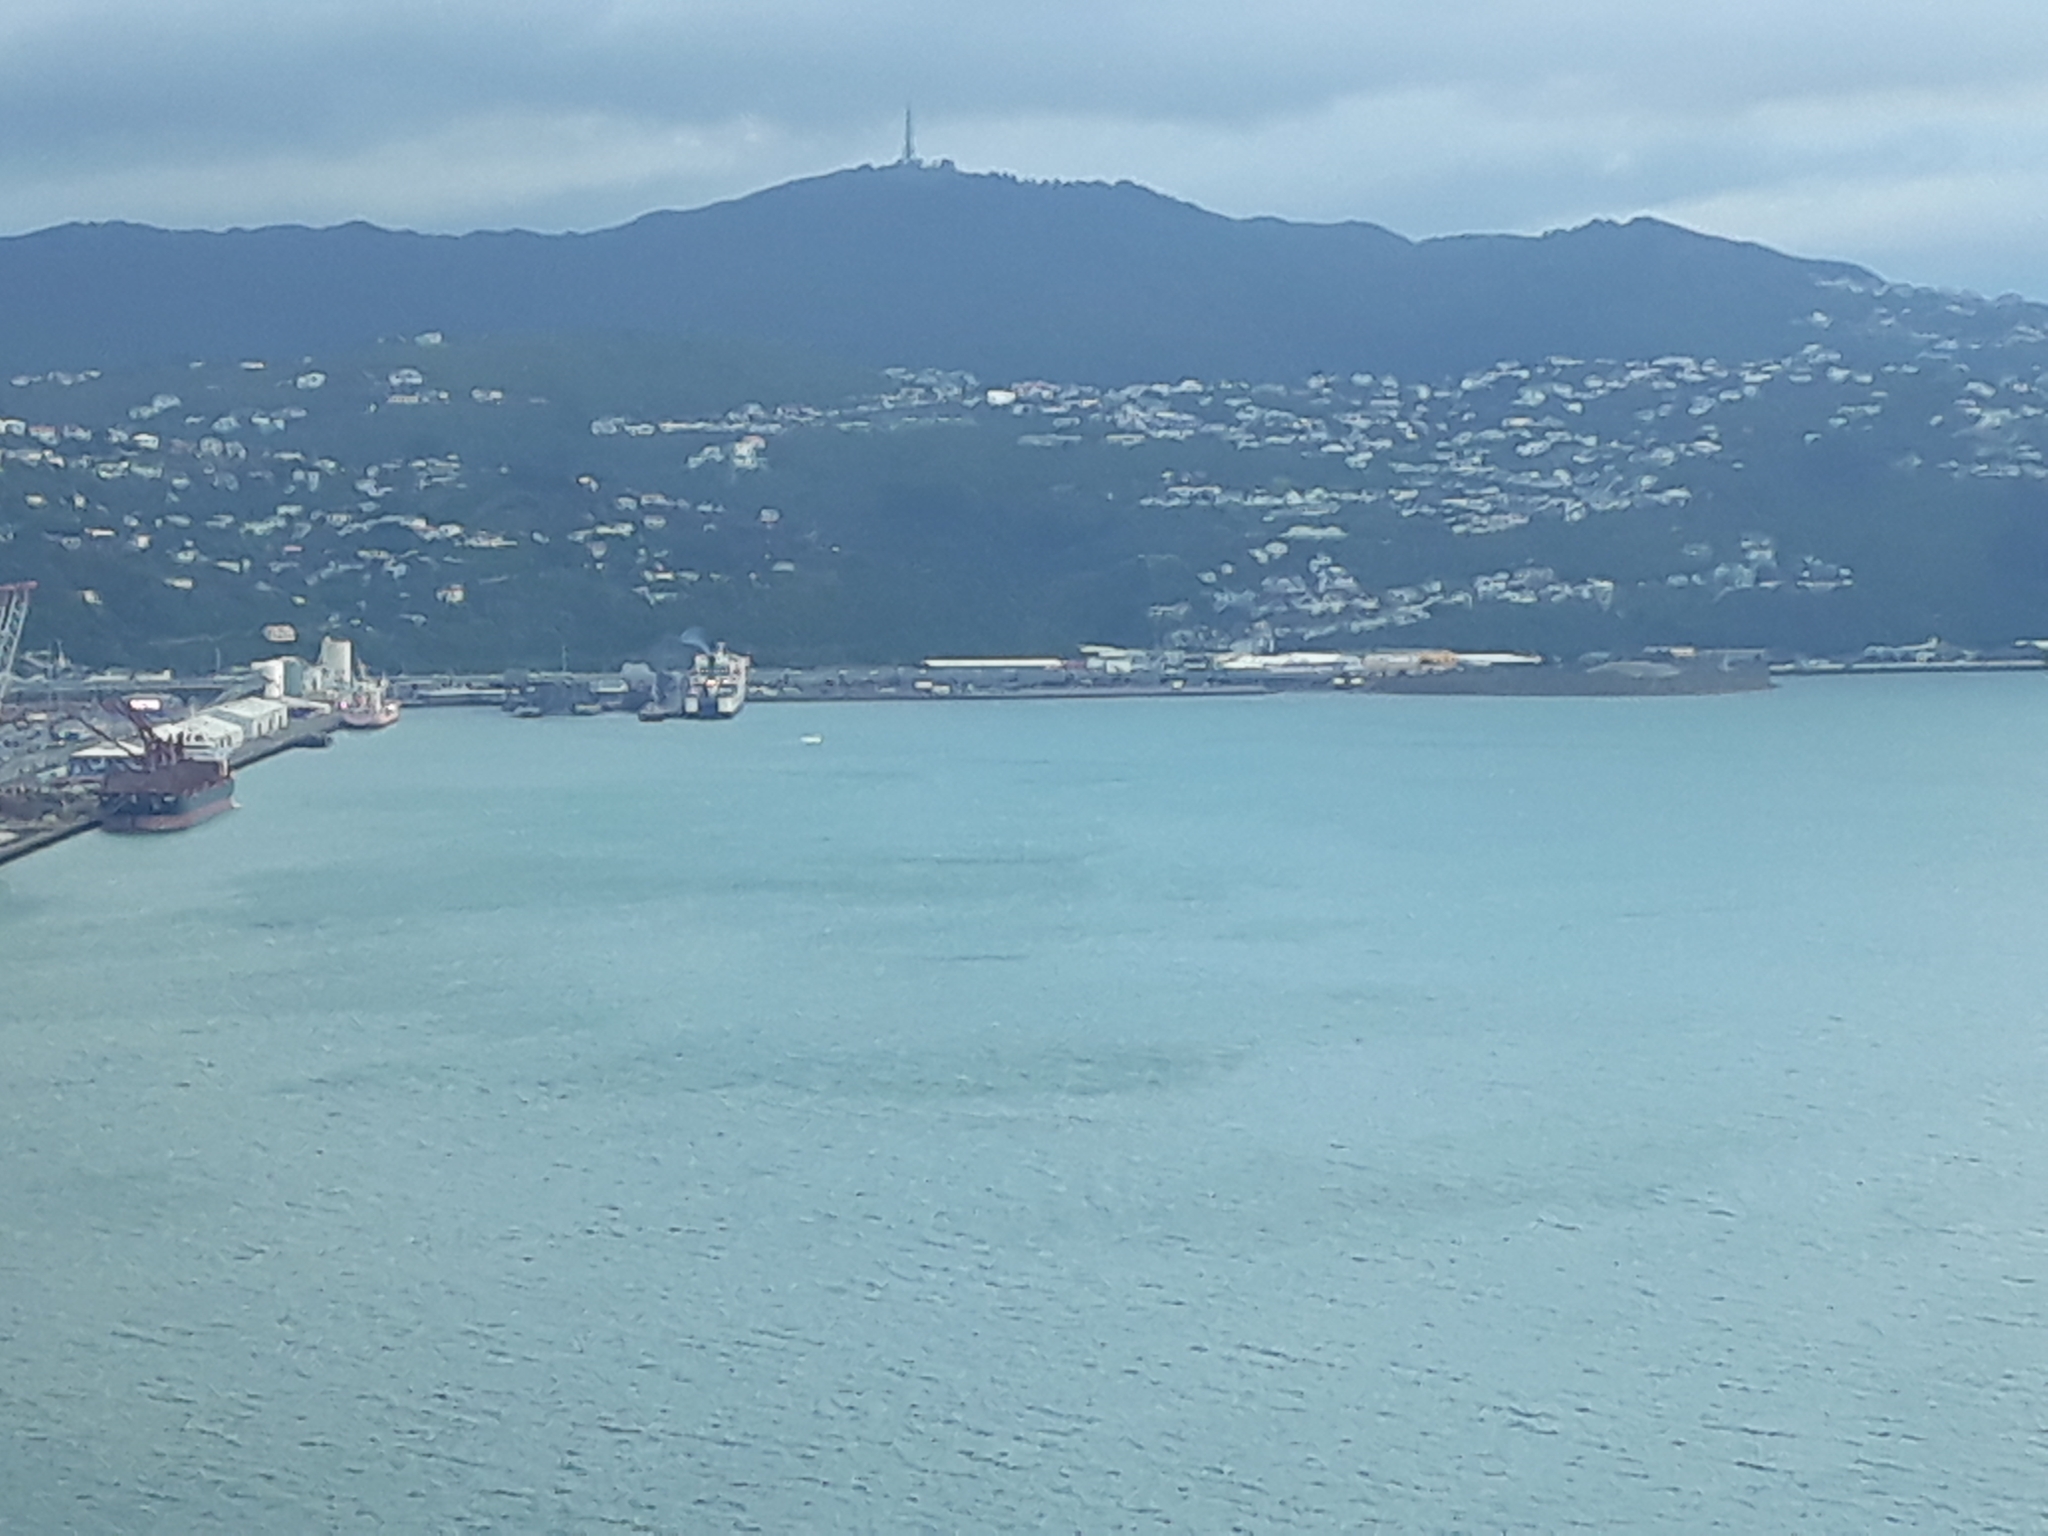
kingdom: Animalia
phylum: Chordata
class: Mammalia
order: Cetacea
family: Balaenidae
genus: Eubalaena
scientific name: Eubalaena australis
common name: Southern right whale
